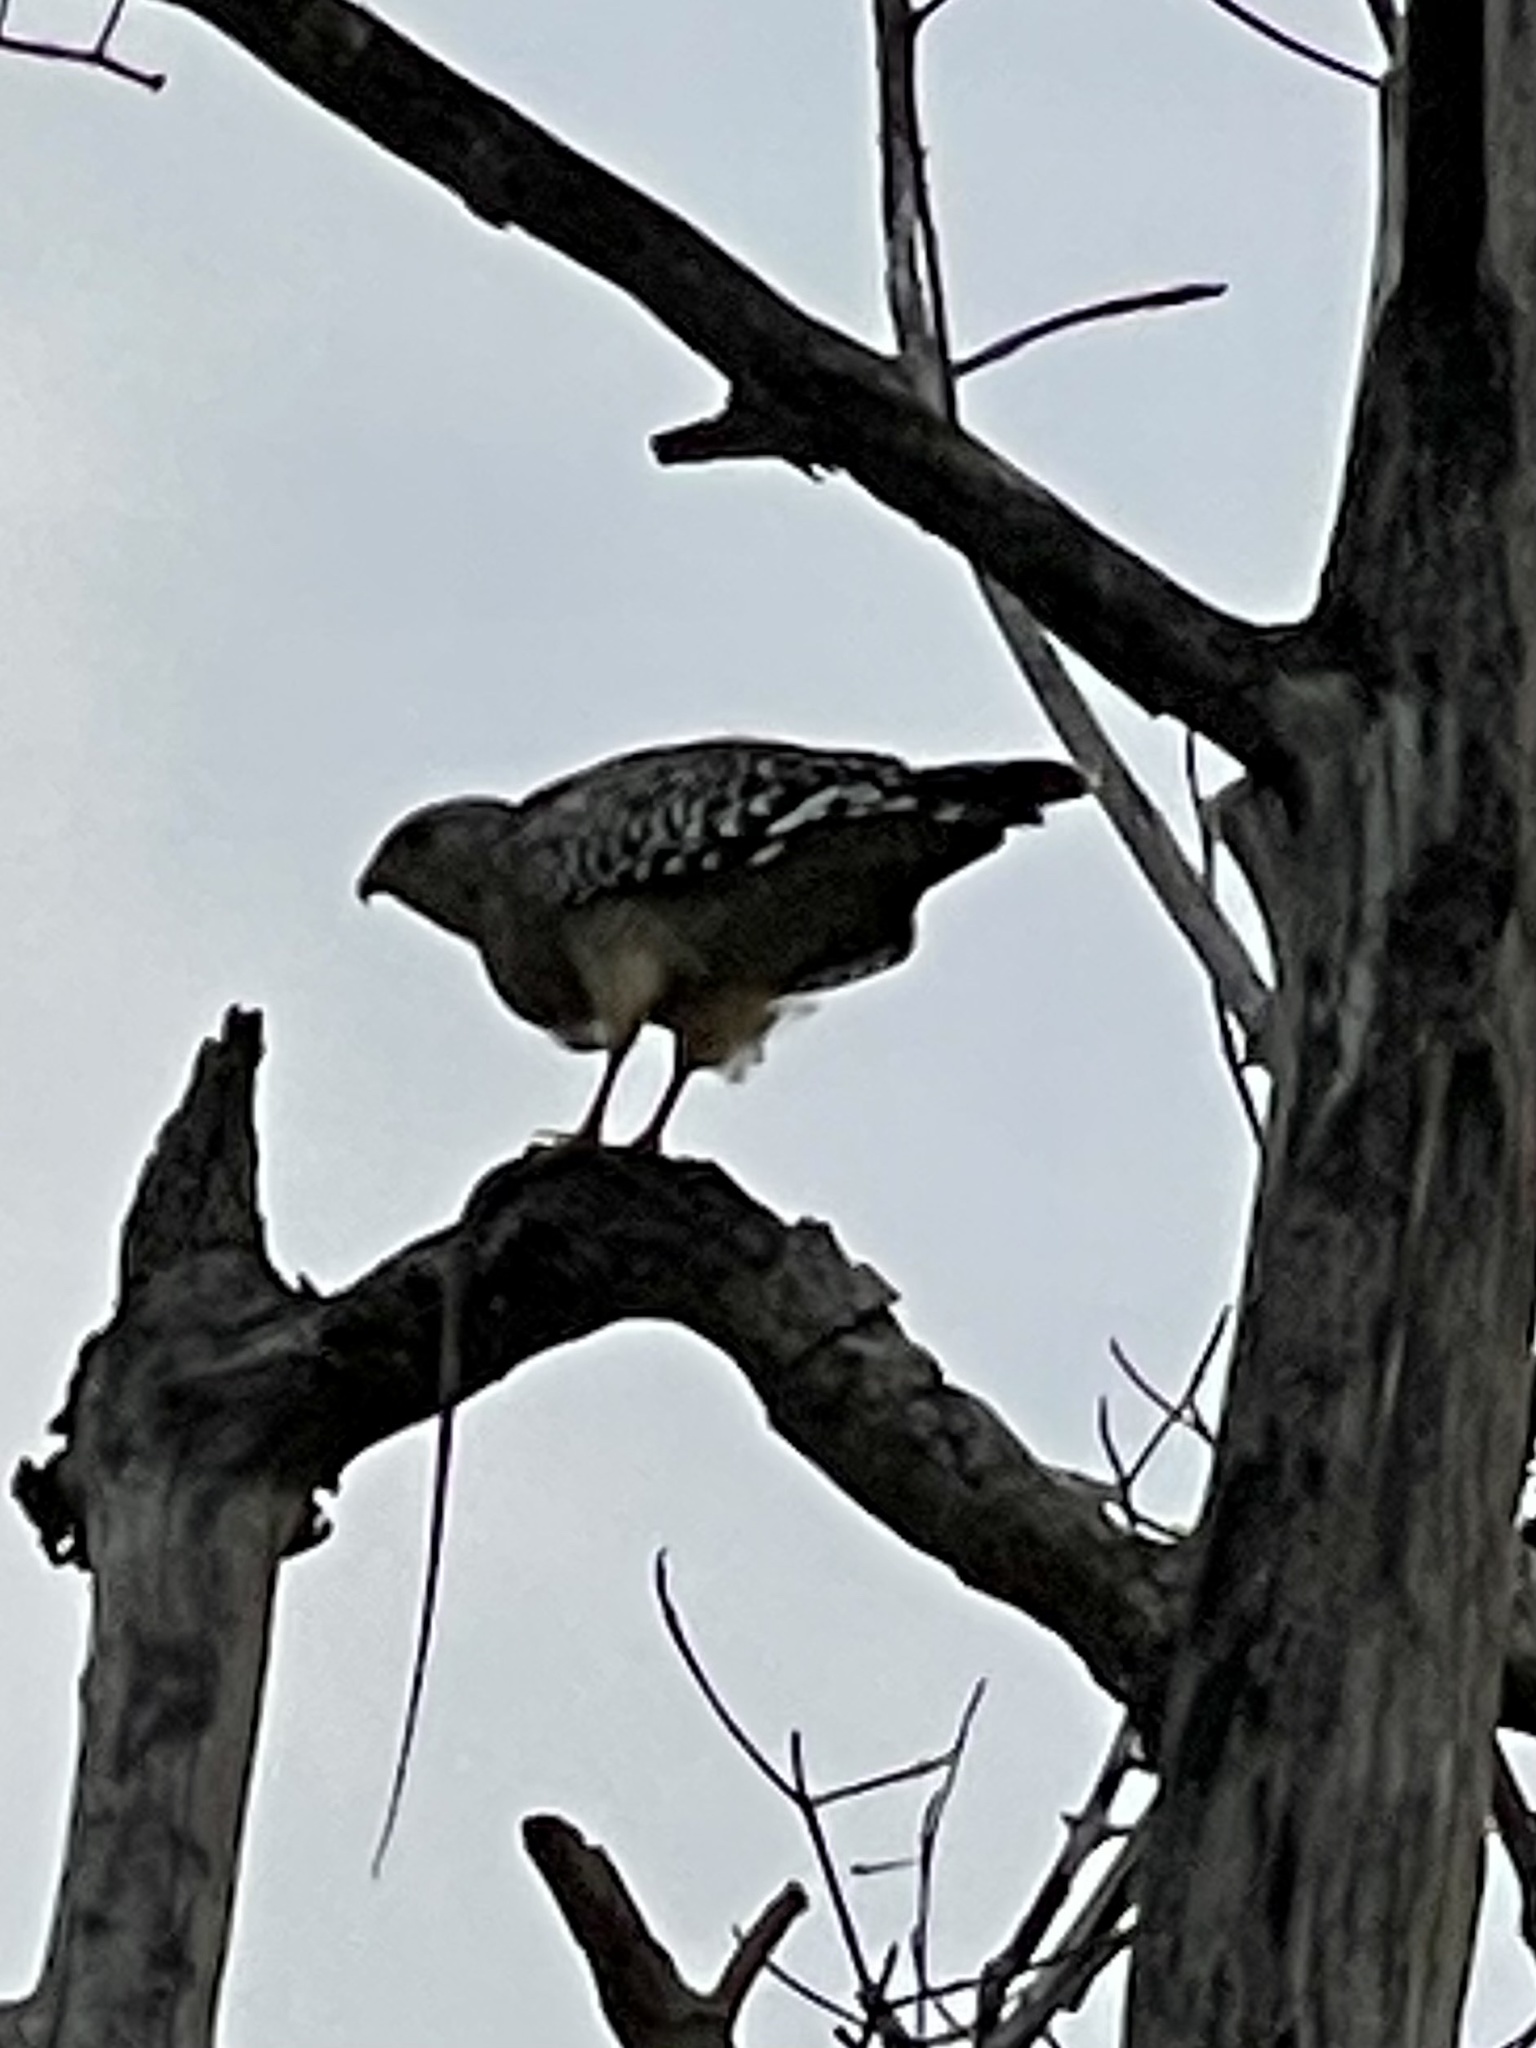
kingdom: Animalia
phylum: Chordata
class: Aves
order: Accipitriformes
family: Accipitridae
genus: Buteo
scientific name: Buteo lineatus
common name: Red-shouldered hawk
